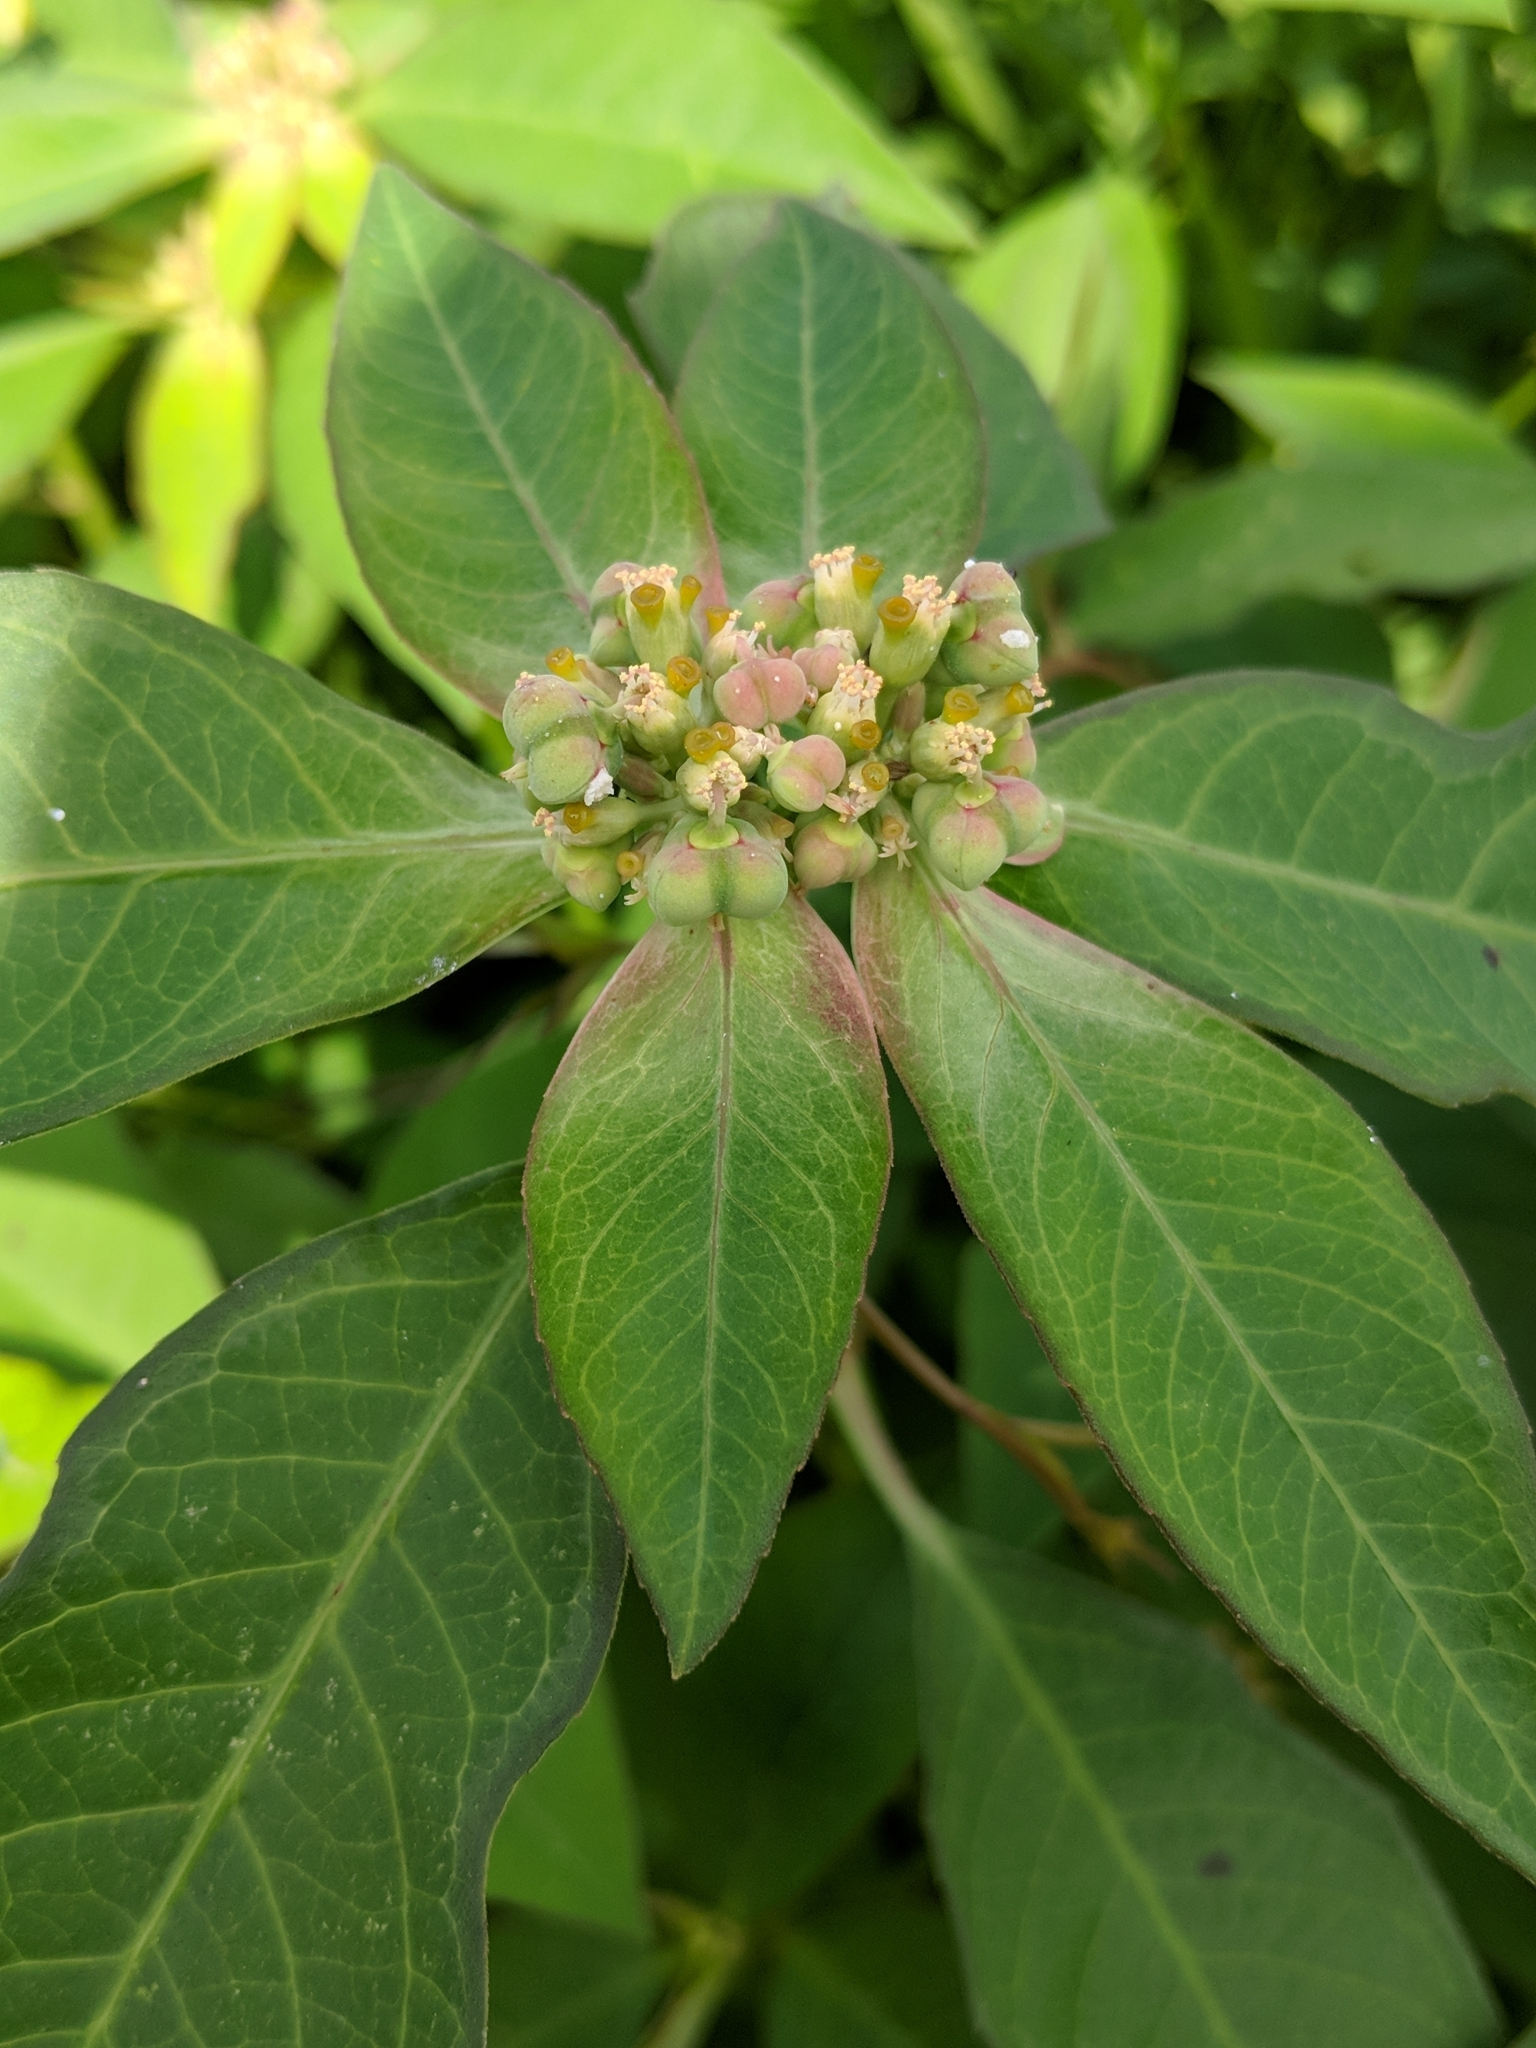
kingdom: Plantae
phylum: Tracheophyta
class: Magnoliopsida
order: Malpighiales
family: Euphorbiaceae
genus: Euphorbia
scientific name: Euphorbia heterophylla
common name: Mexican fireplant
